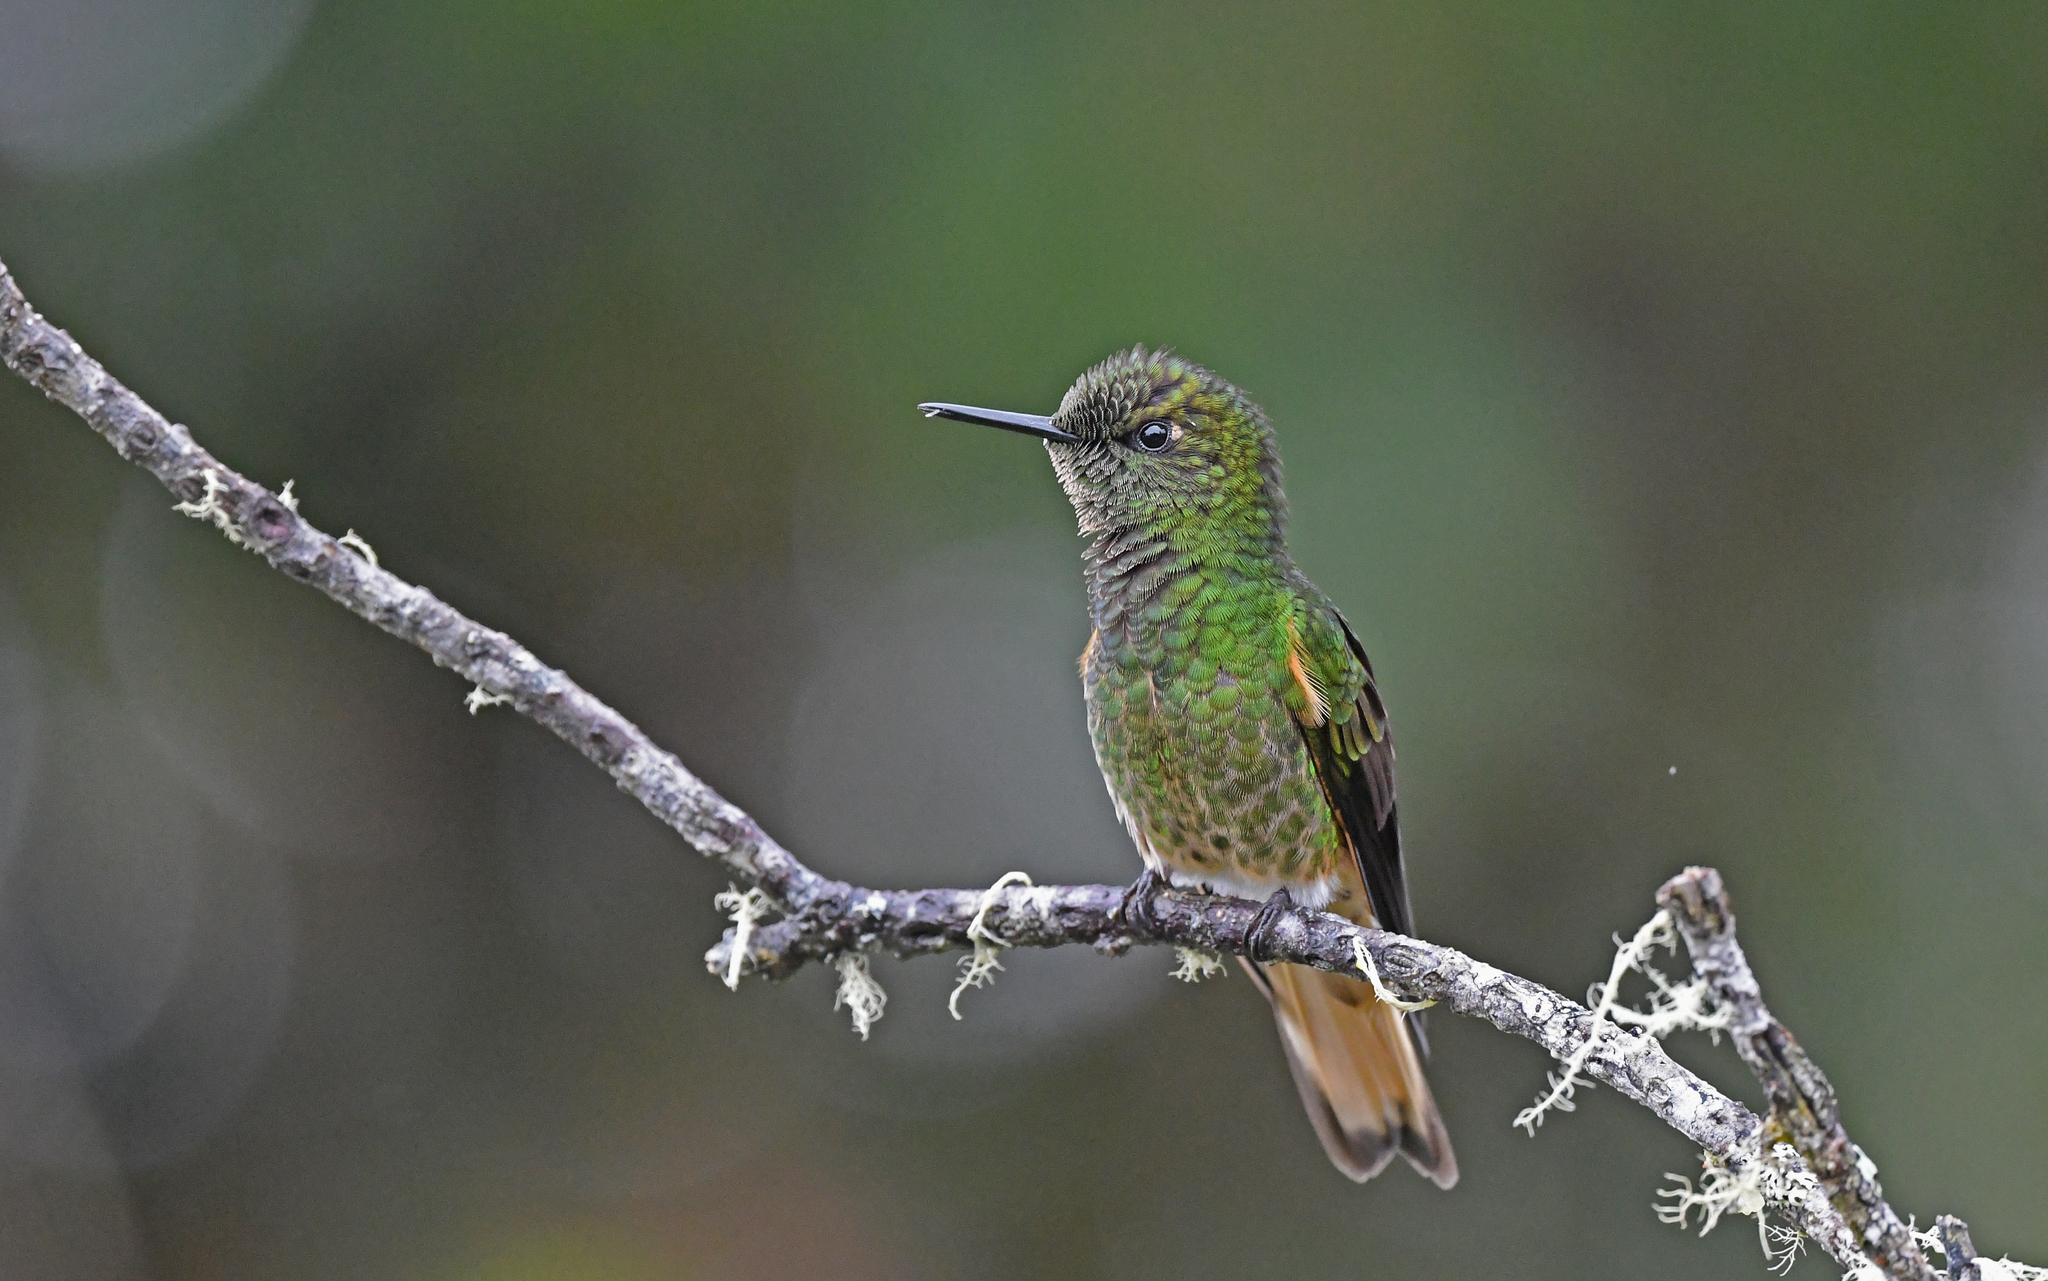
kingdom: Animalia
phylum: Chordata
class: Aves
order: Apodiformes
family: Trochilidae
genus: Boissonneaua
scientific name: Boissonneaua flavescens
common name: Buff-tailed coronet
